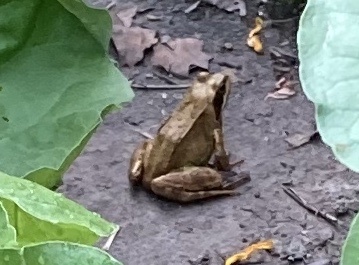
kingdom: Animalia
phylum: Chordata
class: Amphibia
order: Anura
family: Ranidae
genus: Rana
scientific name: Rana temporaria
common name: Common frog
